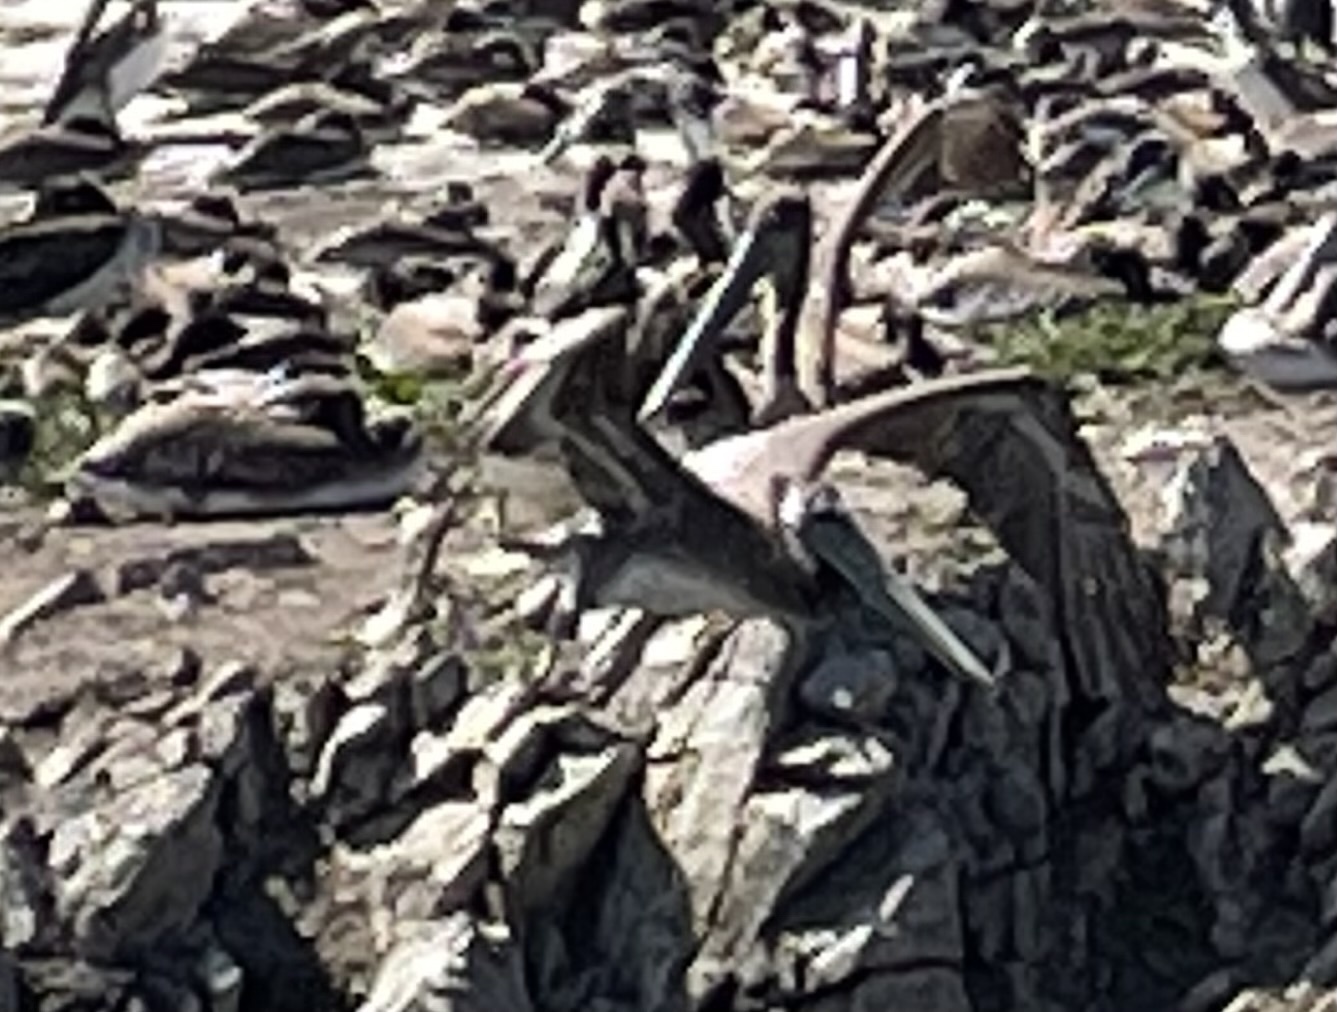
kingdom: Animalia
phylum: Chordata
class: Aves
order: Pelecaniformes
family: Pelecanidae
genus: Pelecanus
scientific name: Pelecanus occidentalis
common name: Brown pelican
